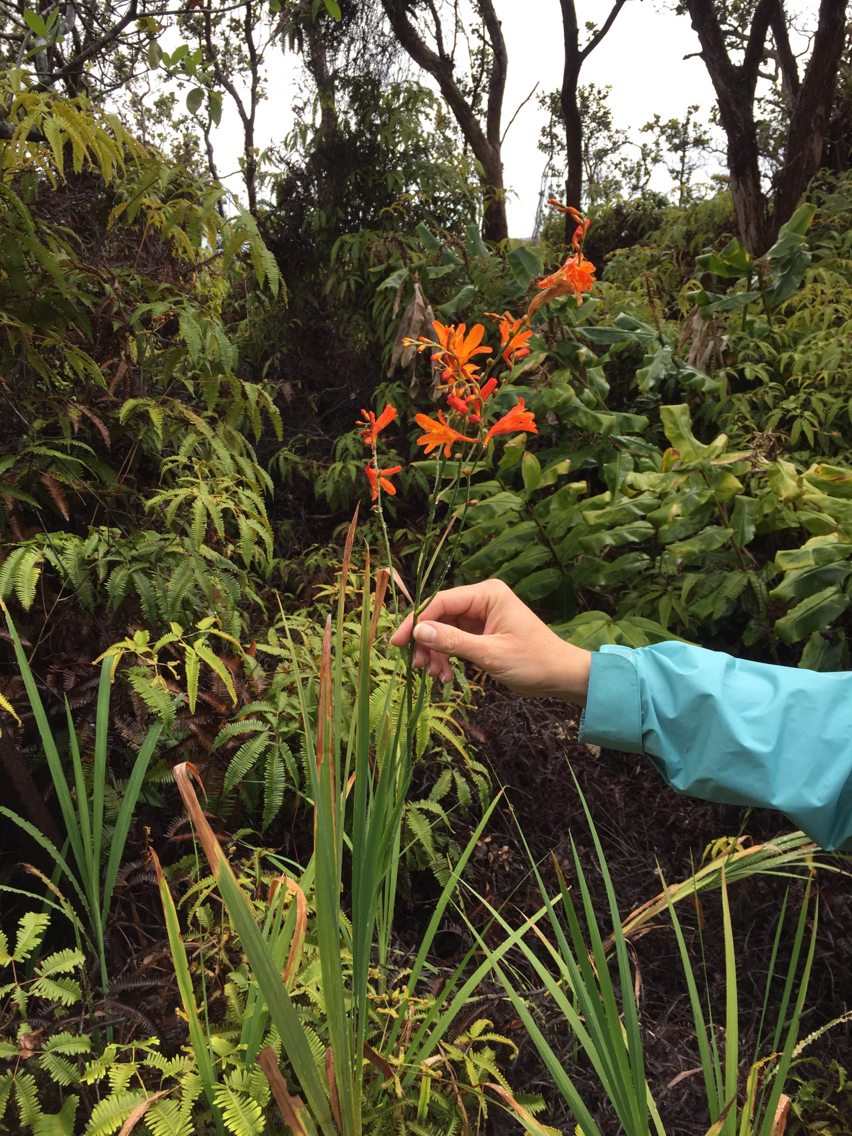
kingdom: Plantae
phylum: Tracheophyta
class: Liliopsida
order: Asparagales
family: Iridaceae
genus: Crocosmia
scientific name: Crocosmia crocosmiiflora
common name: Montbretia
